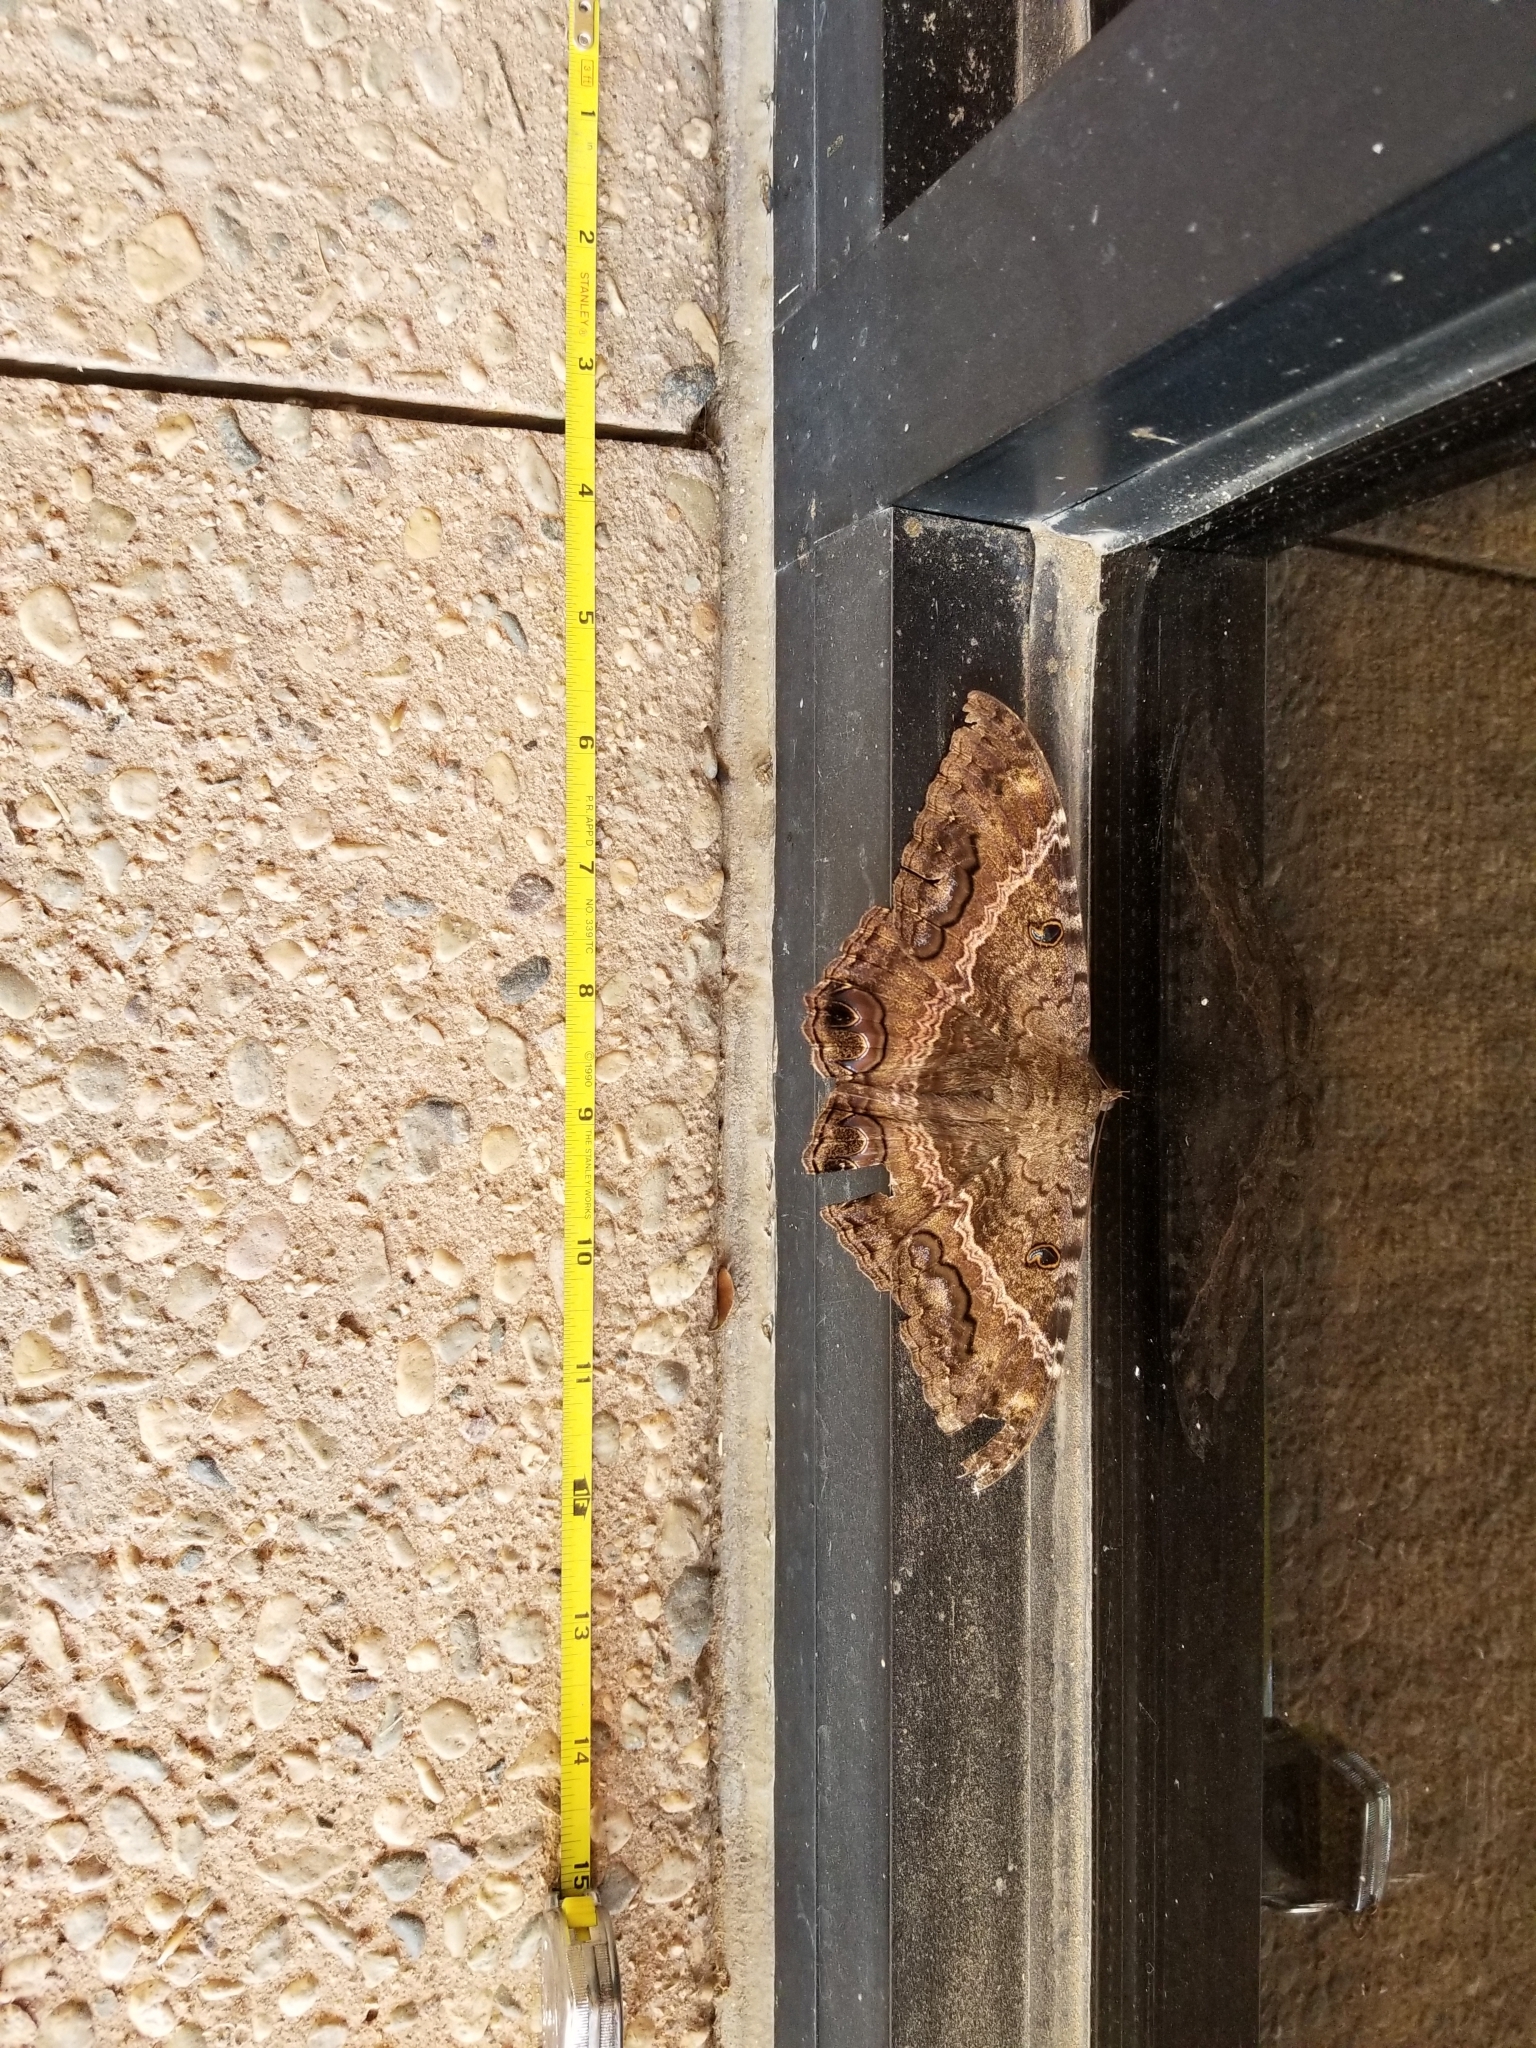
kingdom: Animalia
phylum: Arthropoda
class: Insecta
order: Lepidoptera
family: Erebidae
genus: Ascalapha
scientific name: Ascalapha odorata
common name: Black witch
